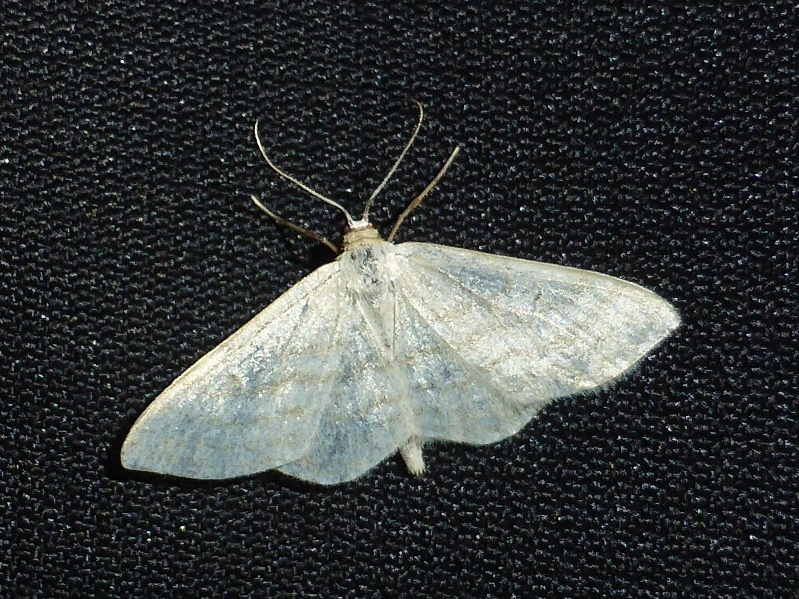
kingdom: Animalia
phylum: Arthropoda
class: Insecta
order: Lepidoptera
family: Geometridae
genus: Idaea
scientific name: Idaea subsericeata
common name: Satin wave
